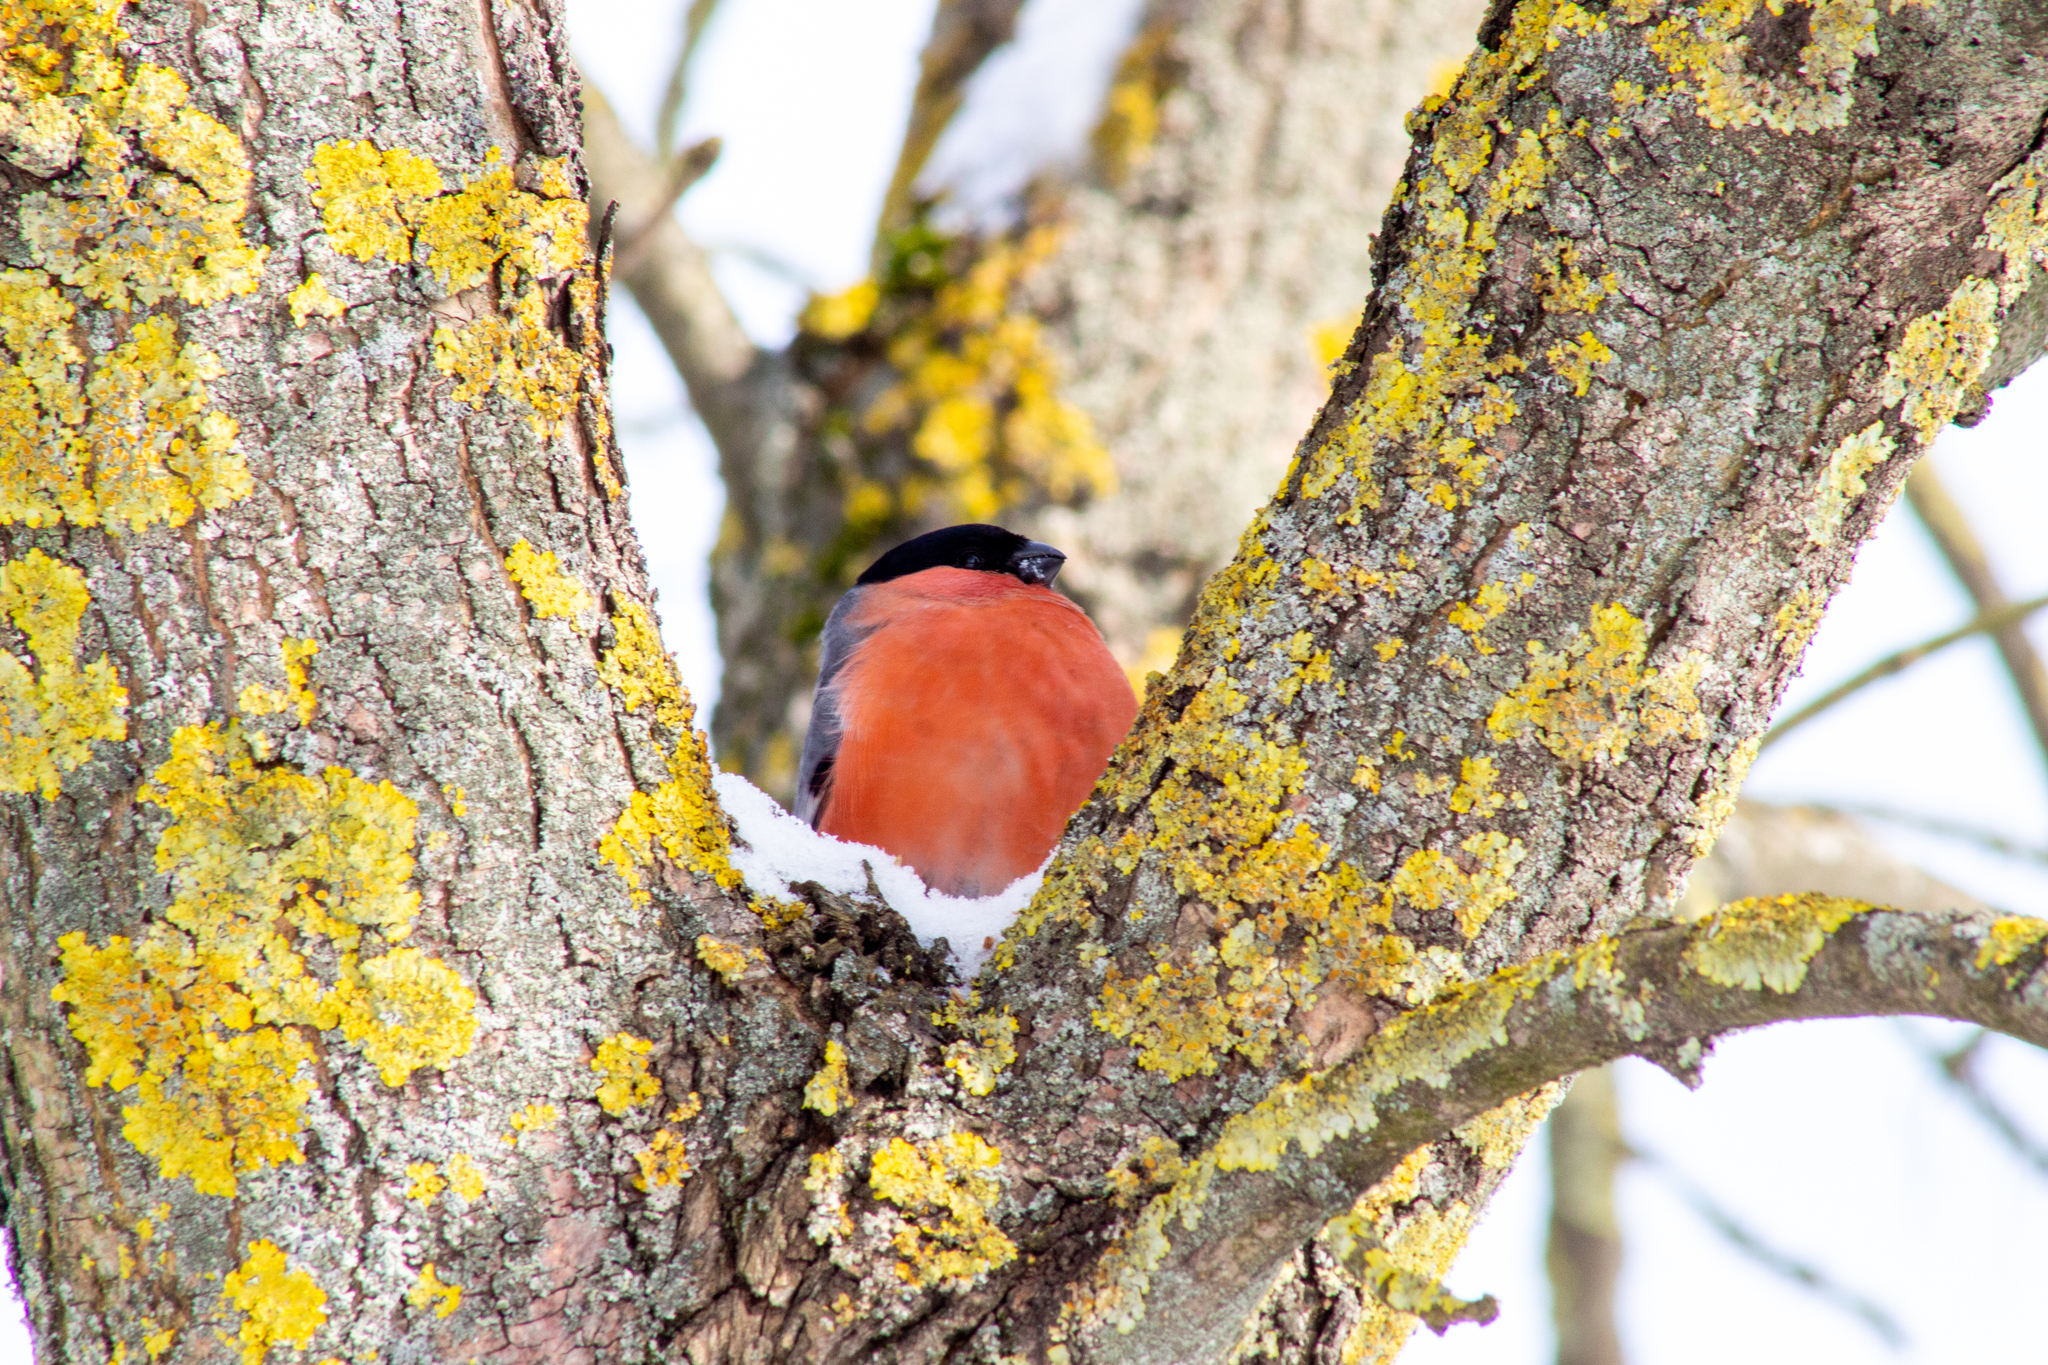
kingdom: Animalia
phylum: Chordata
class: Aves
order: Passeriformes
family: Fringillidae
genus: Pyrrhula
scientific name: Pyrrhula pyrrhula
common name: Eurasian bullfinch
